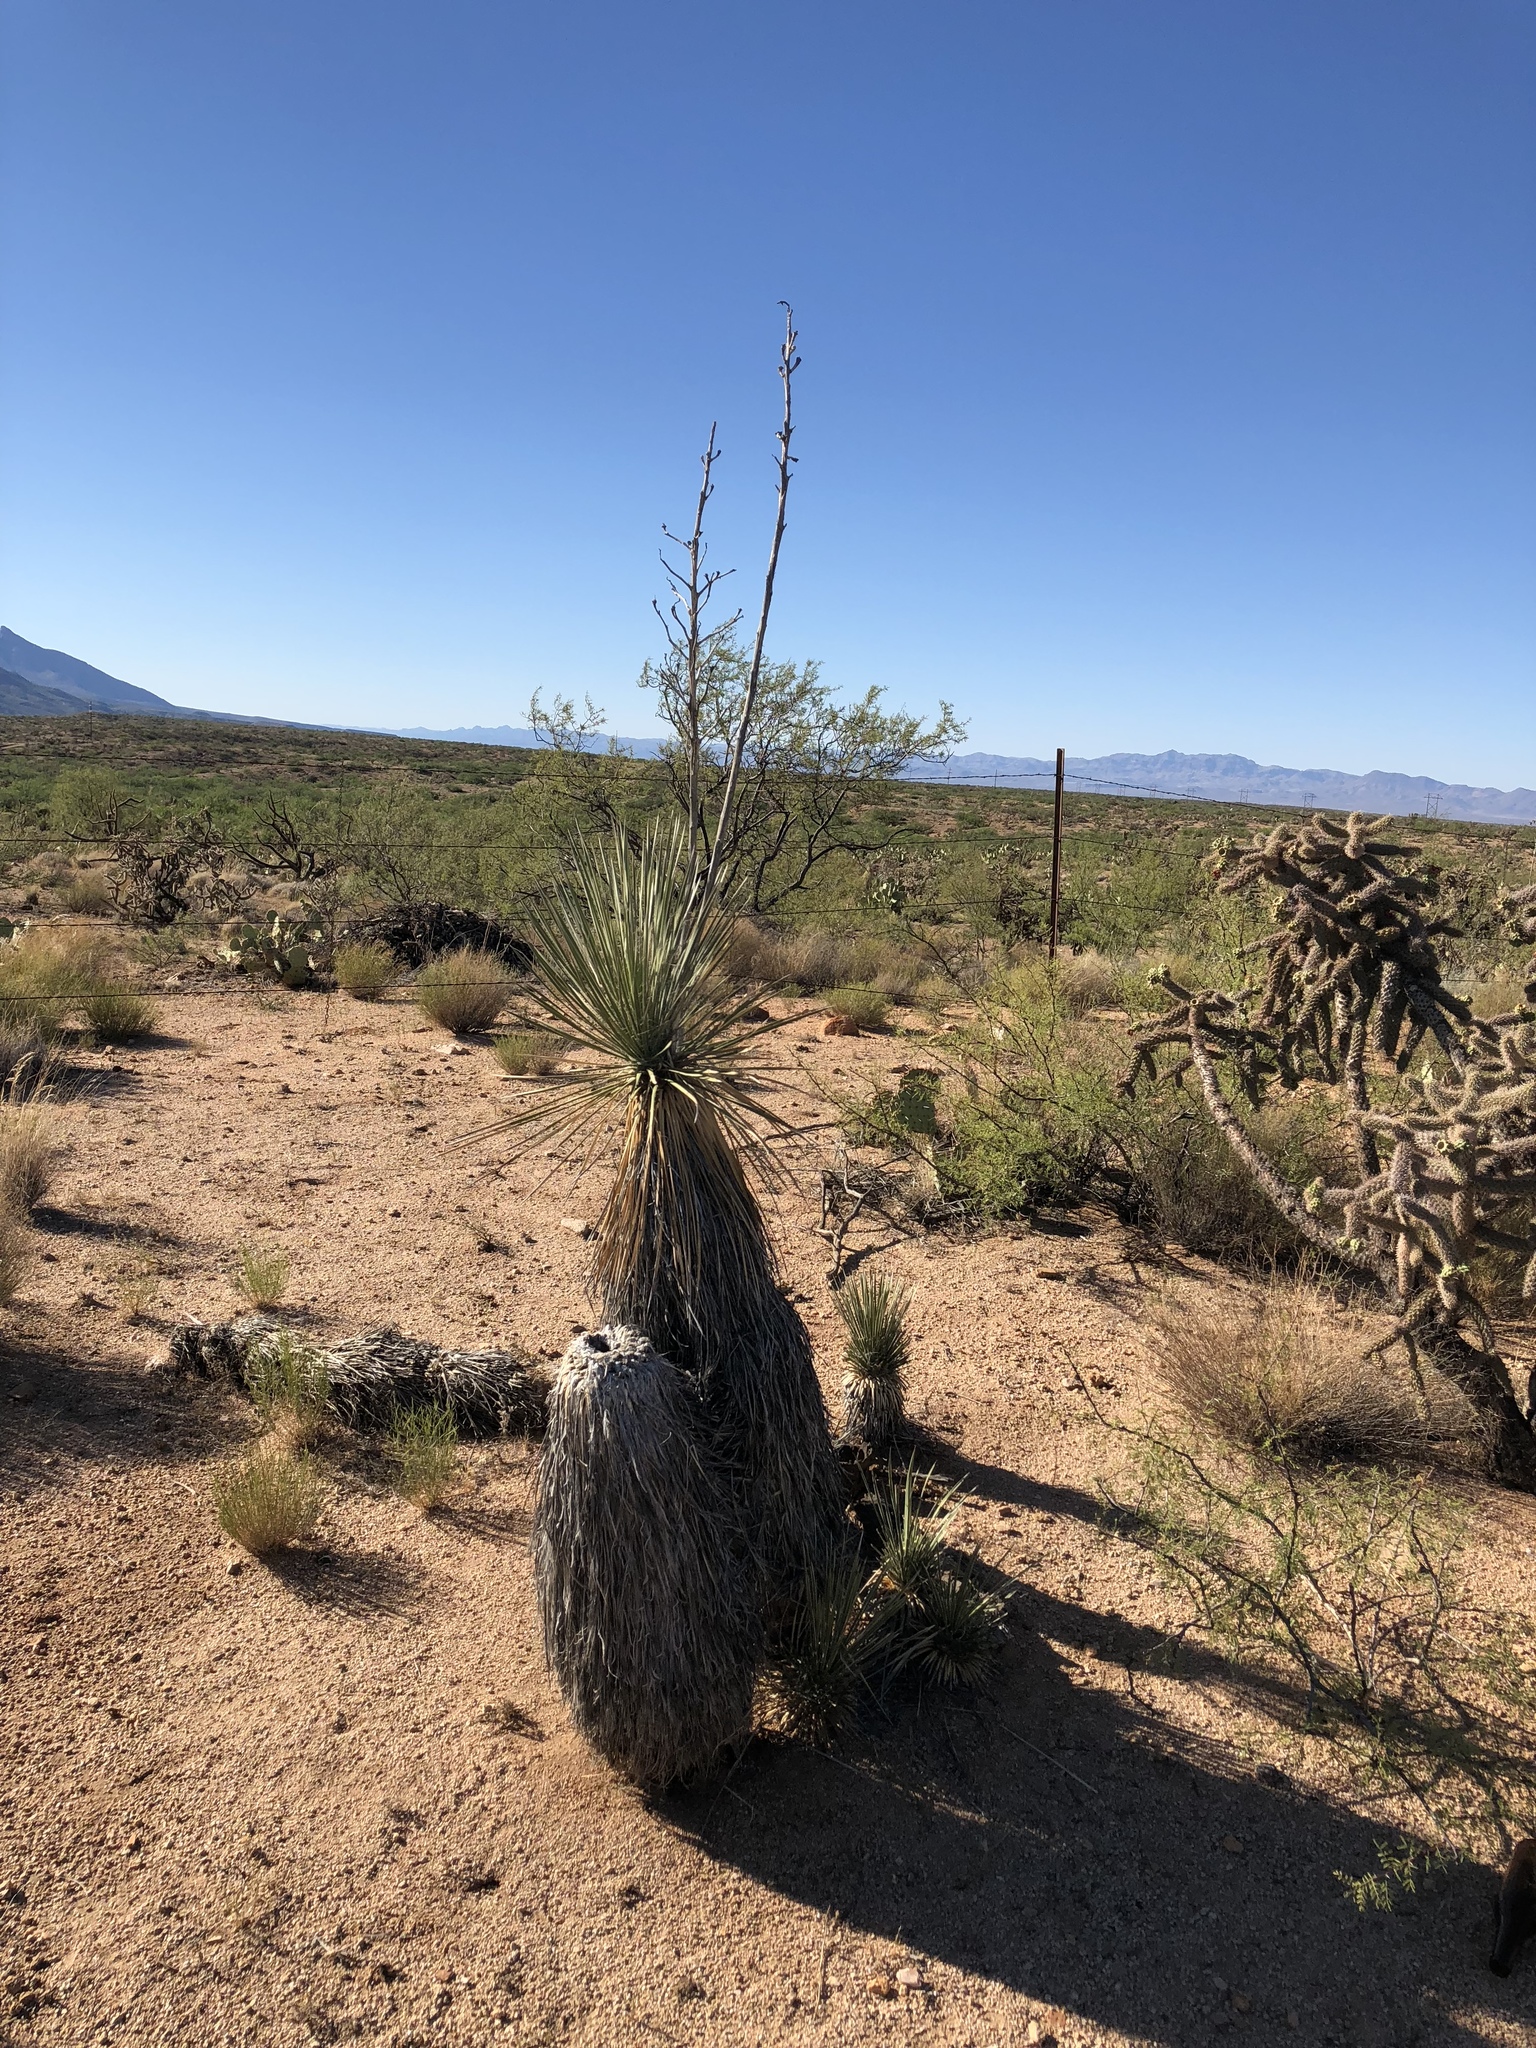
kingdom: Plantae
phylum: Tracheophyta
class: Liliopsida
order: Asparagales
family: Asparagaceae
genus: Yucca
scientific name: Yucca elata
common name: Palmella
